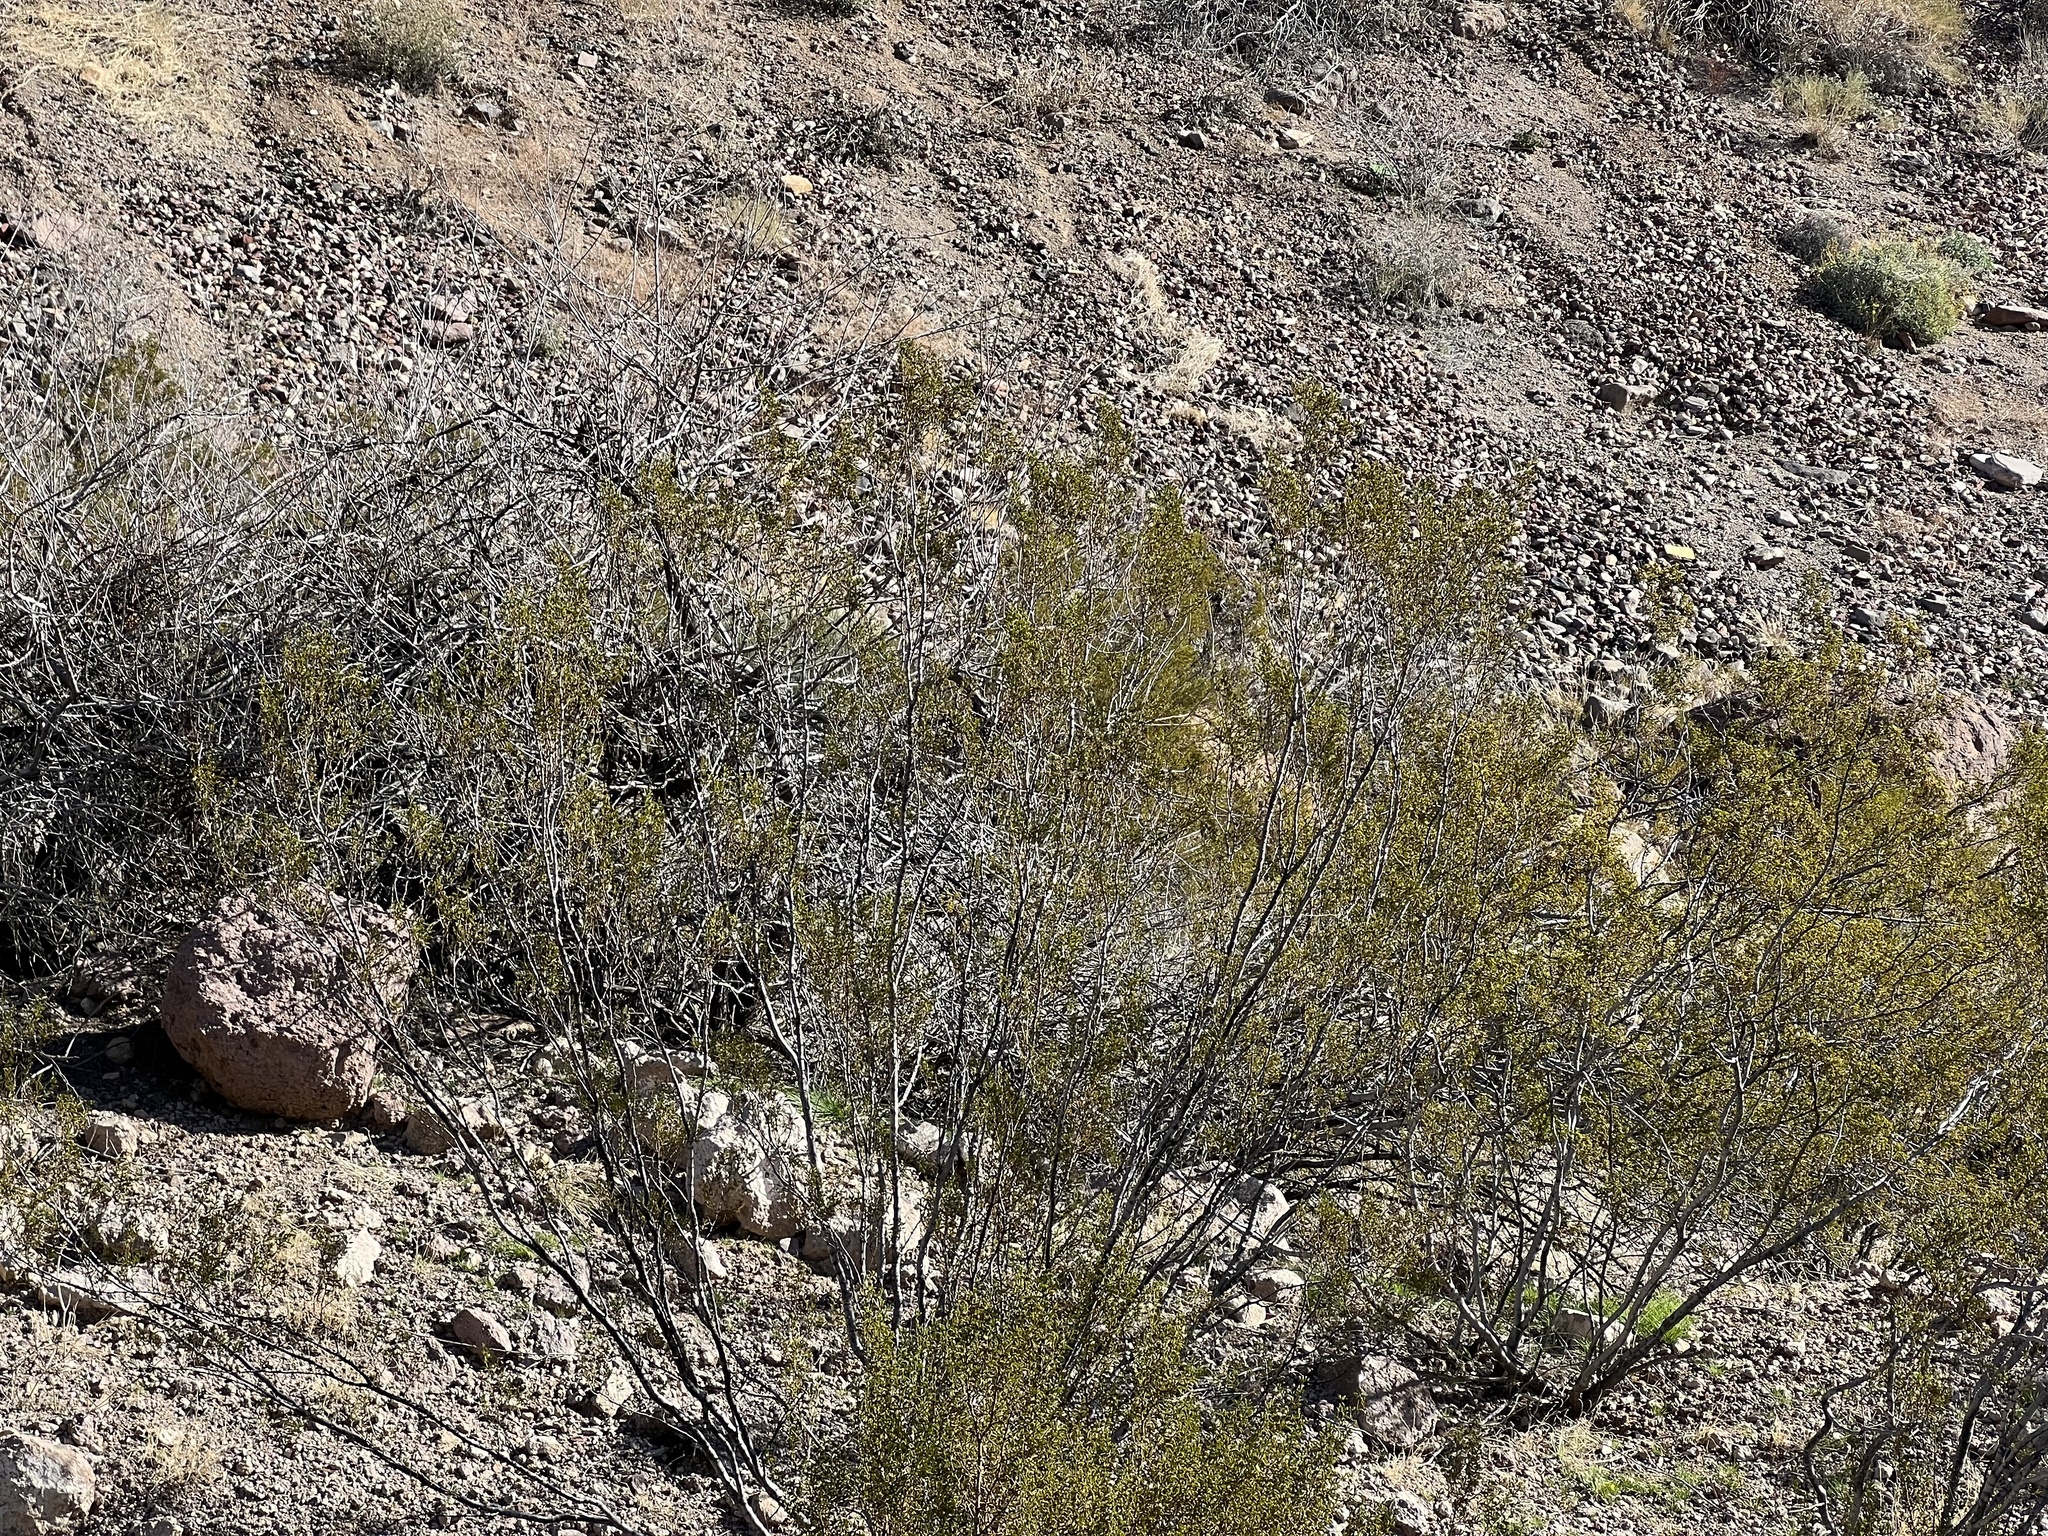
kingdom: Plantae
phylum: Tracheophyta
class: Magnoliopsida
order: Zygophyllales
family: Zygophyllaceae
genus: Larrea
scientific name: Larrea tridentata
